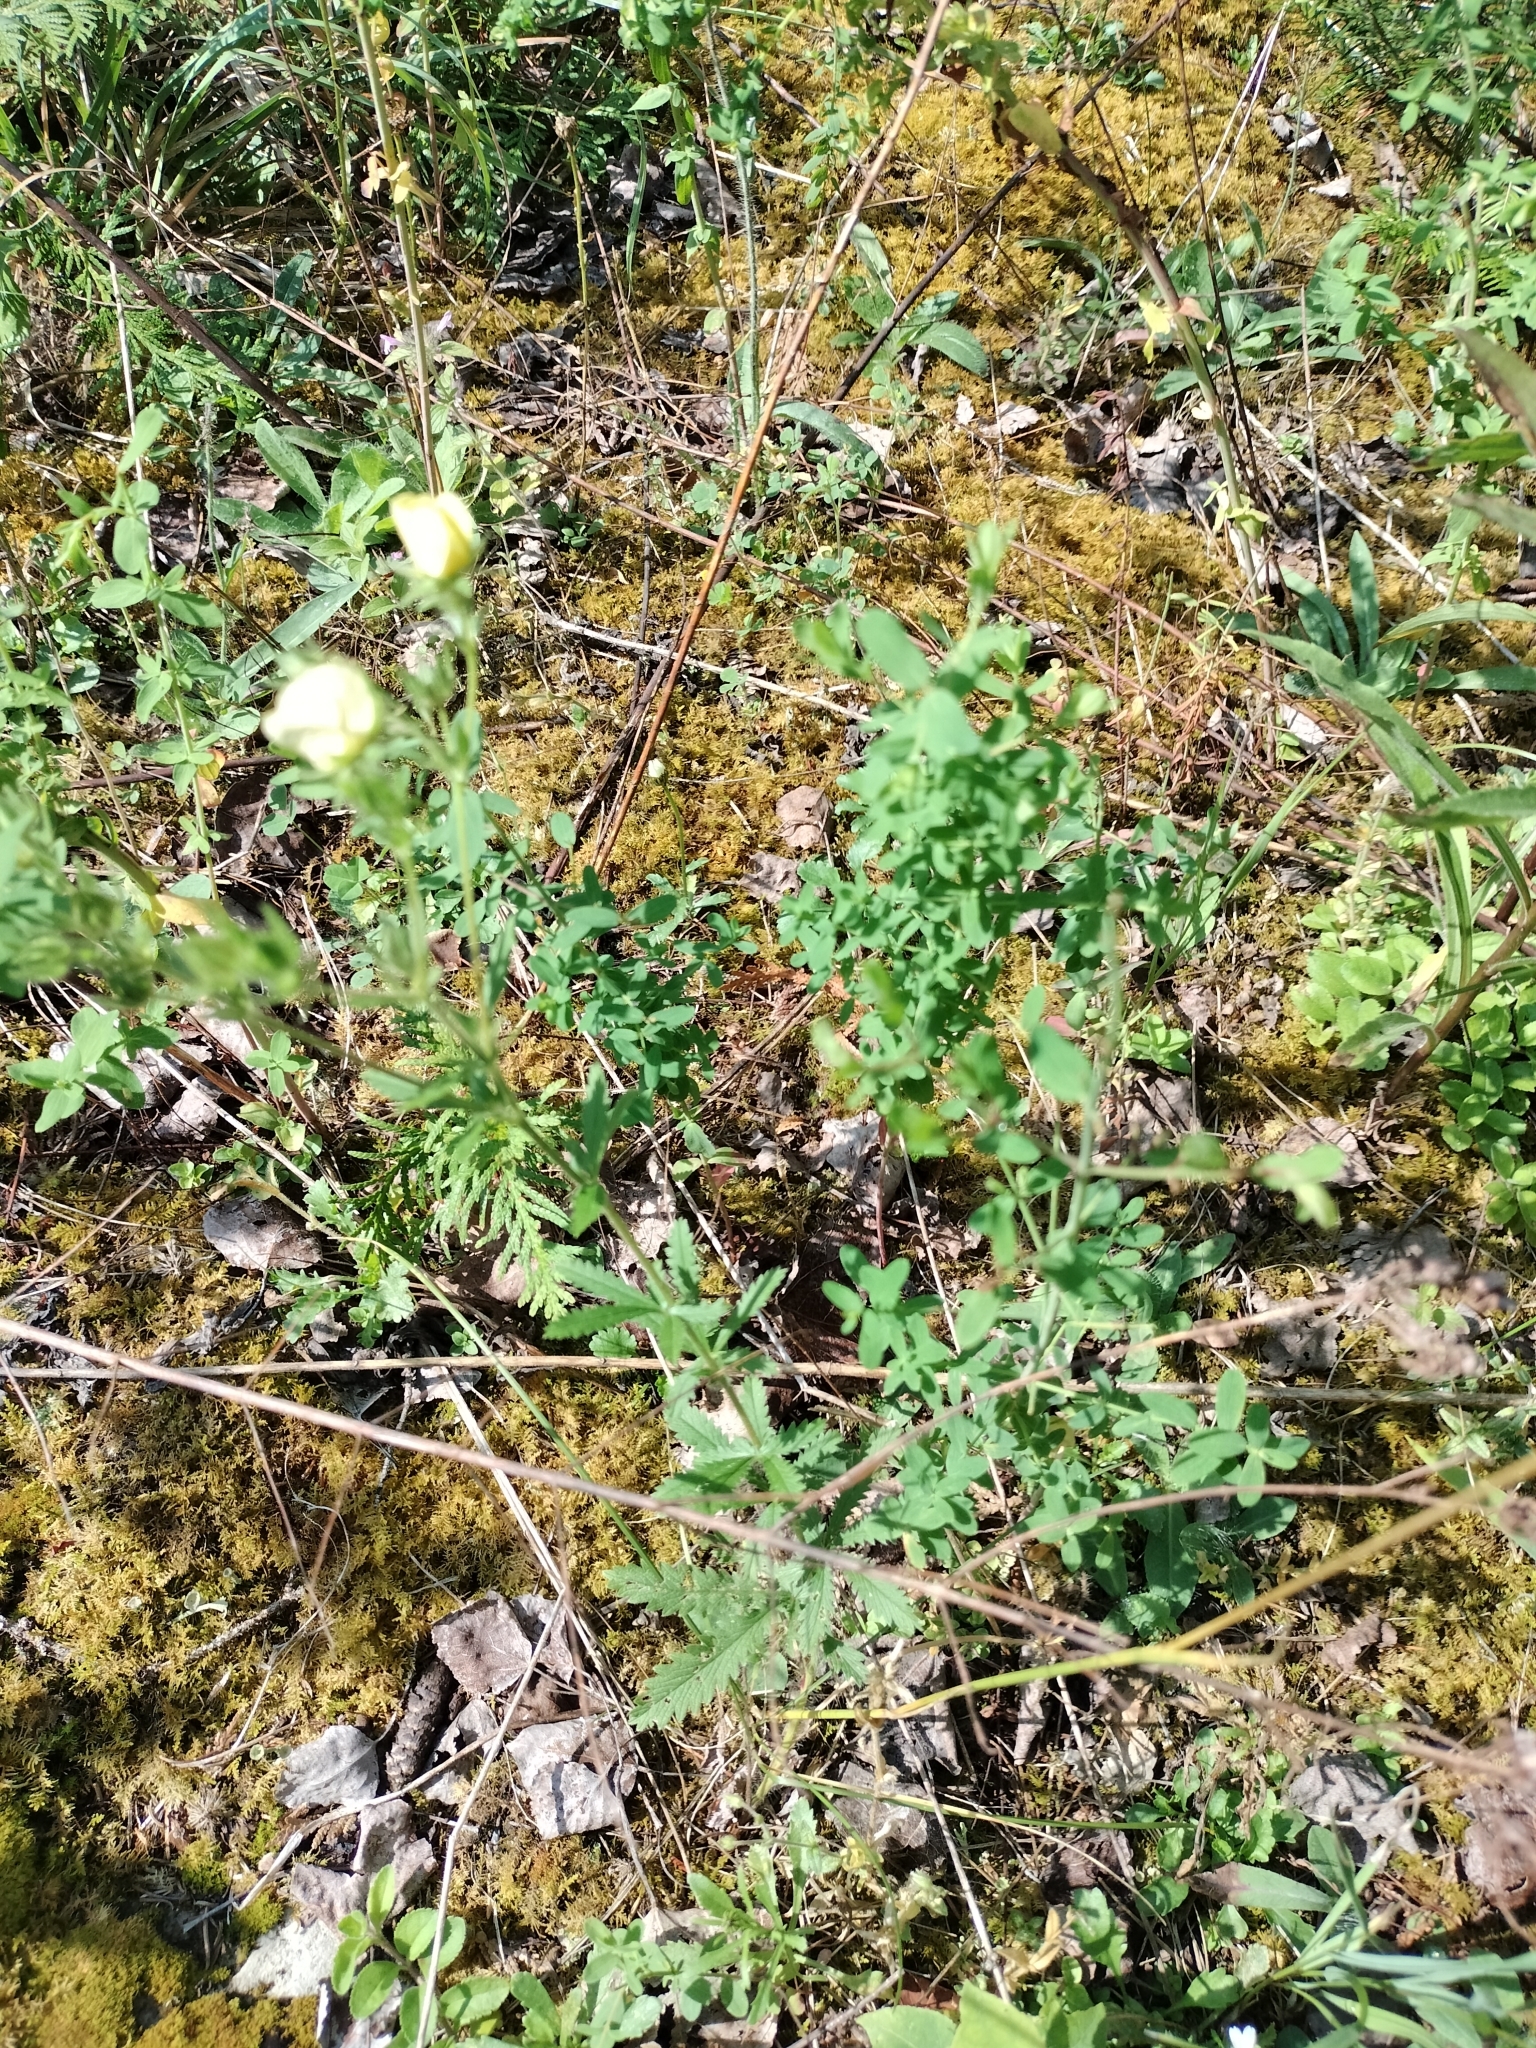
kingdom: Plantae
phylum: Tracheophyta
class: Magnoliopsida
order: Rosales
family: Rosaceae
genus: Potentilla
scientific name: Potentilla recta
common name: Sulphur cinquefoil
